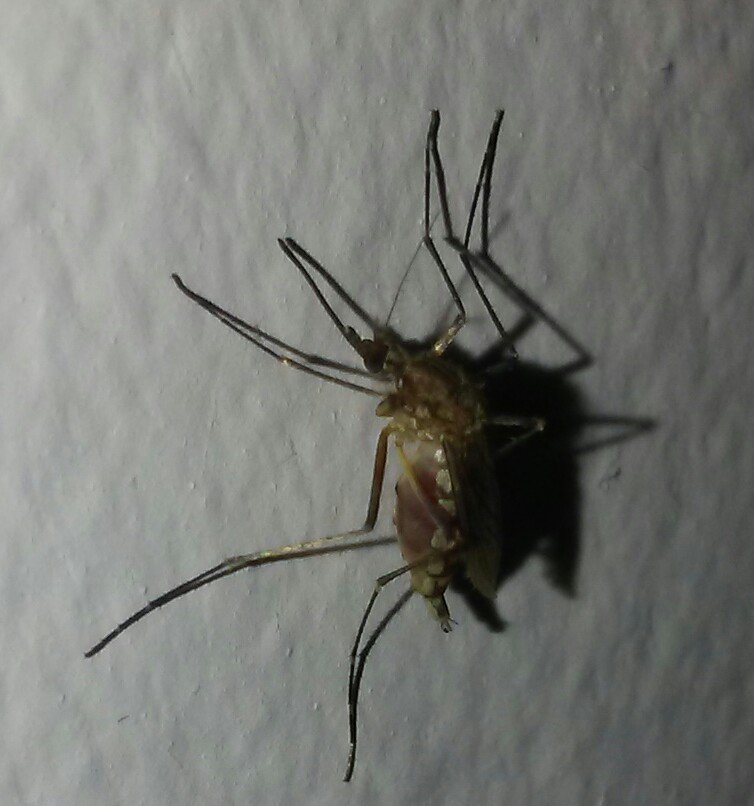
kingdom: Animalia
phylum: Arthropoda
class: Insecta
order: Diptera
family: Culicidae
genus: Aedes
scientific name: Aedes vexans
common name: Inland floodwater mosquito
